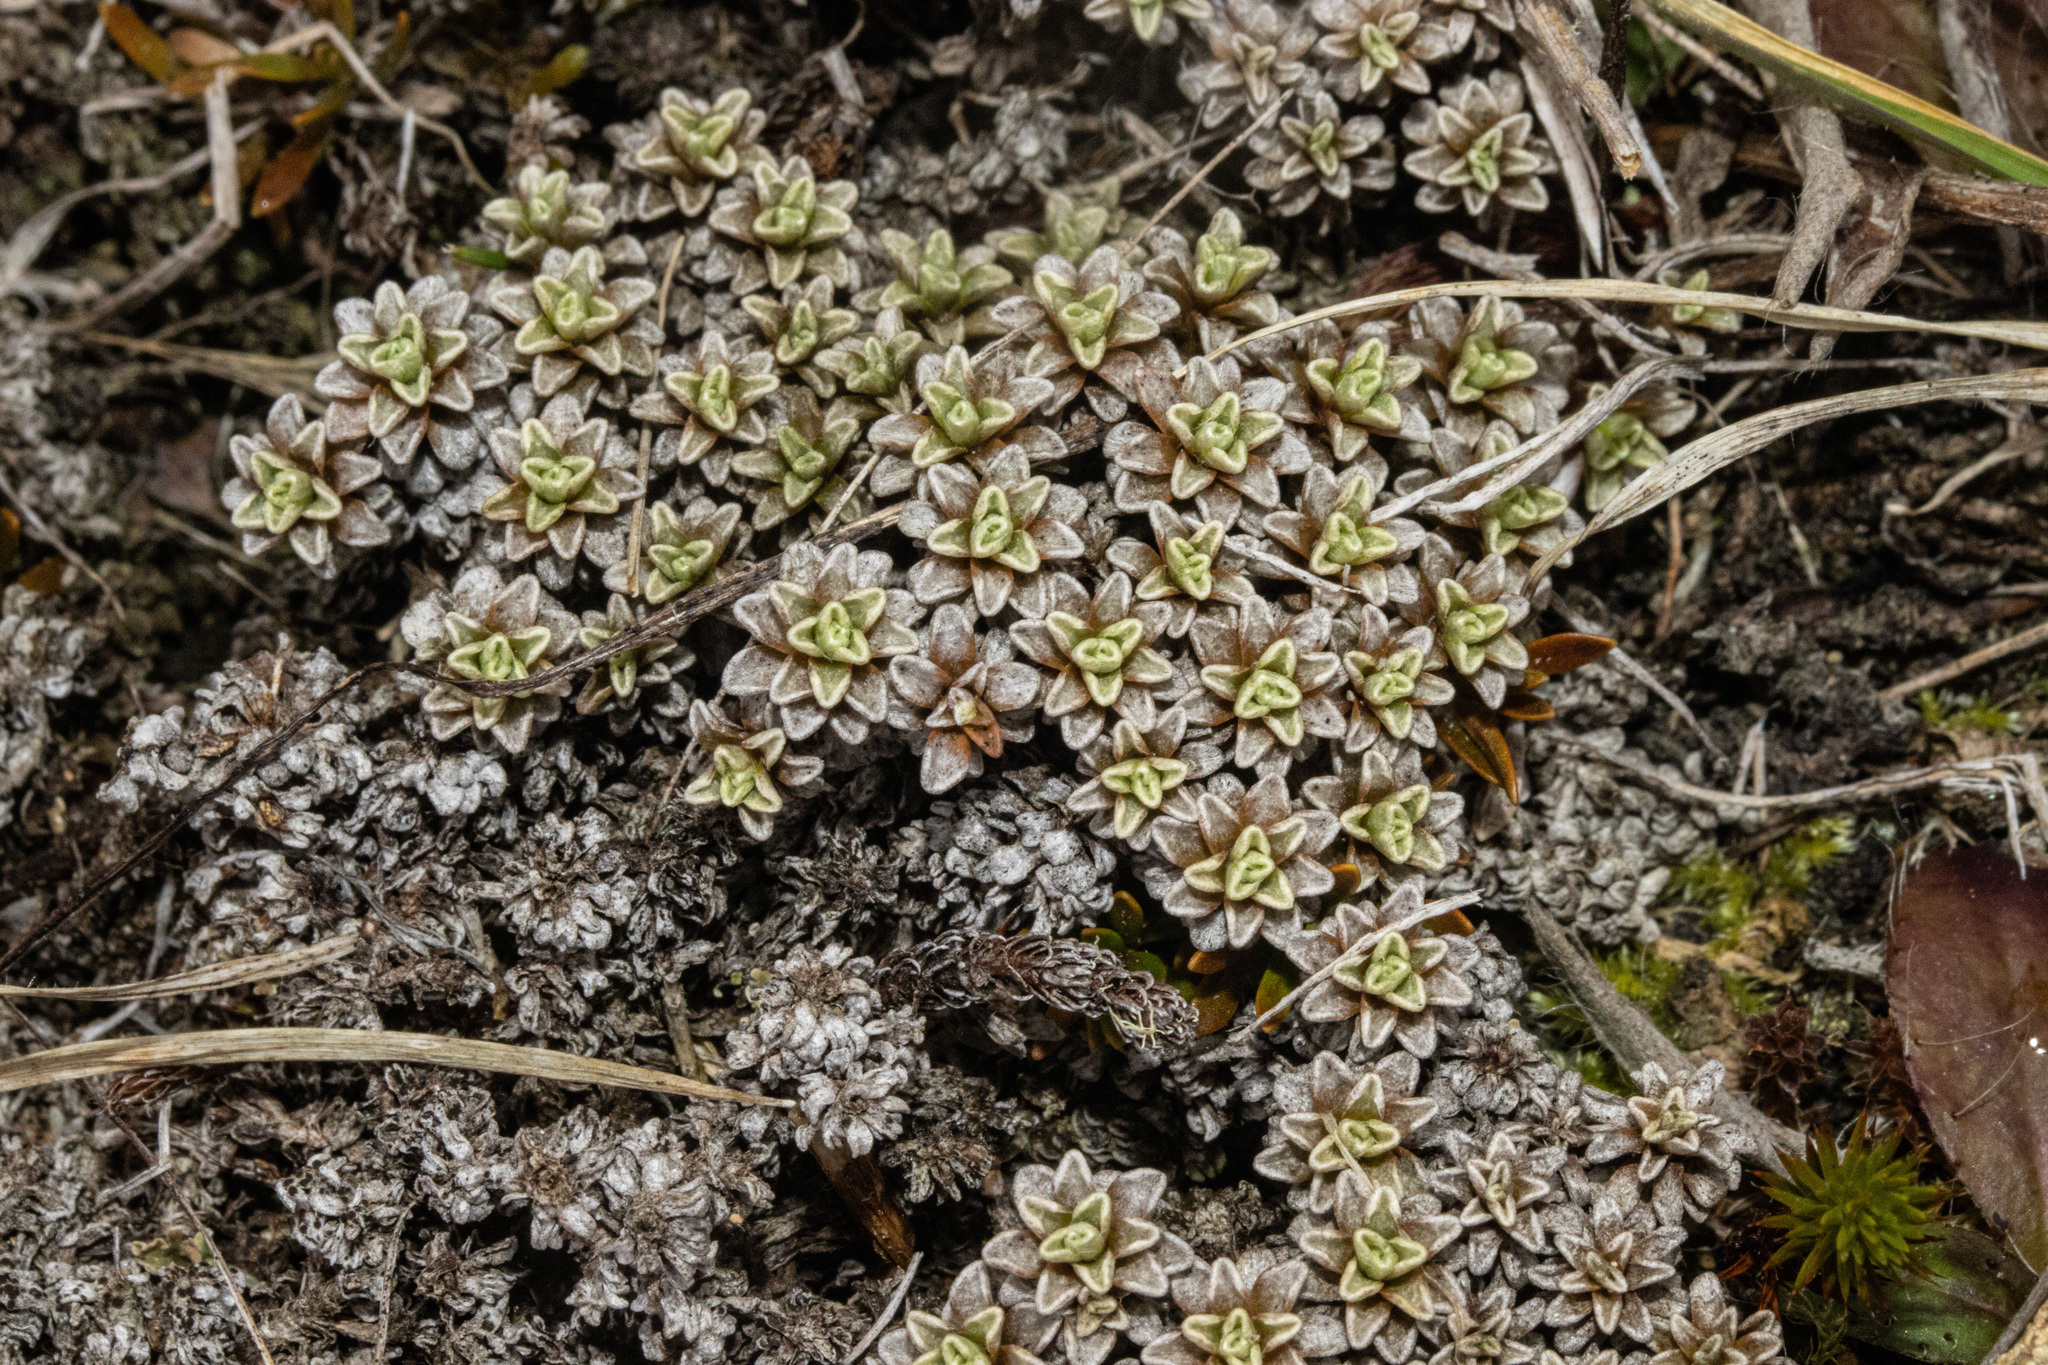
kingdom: Plantae
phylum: Tracheophyta
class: Magnoliopsida
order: Asterales
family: Asteraceae
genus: Raoulia
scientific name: Raoulia parkii
